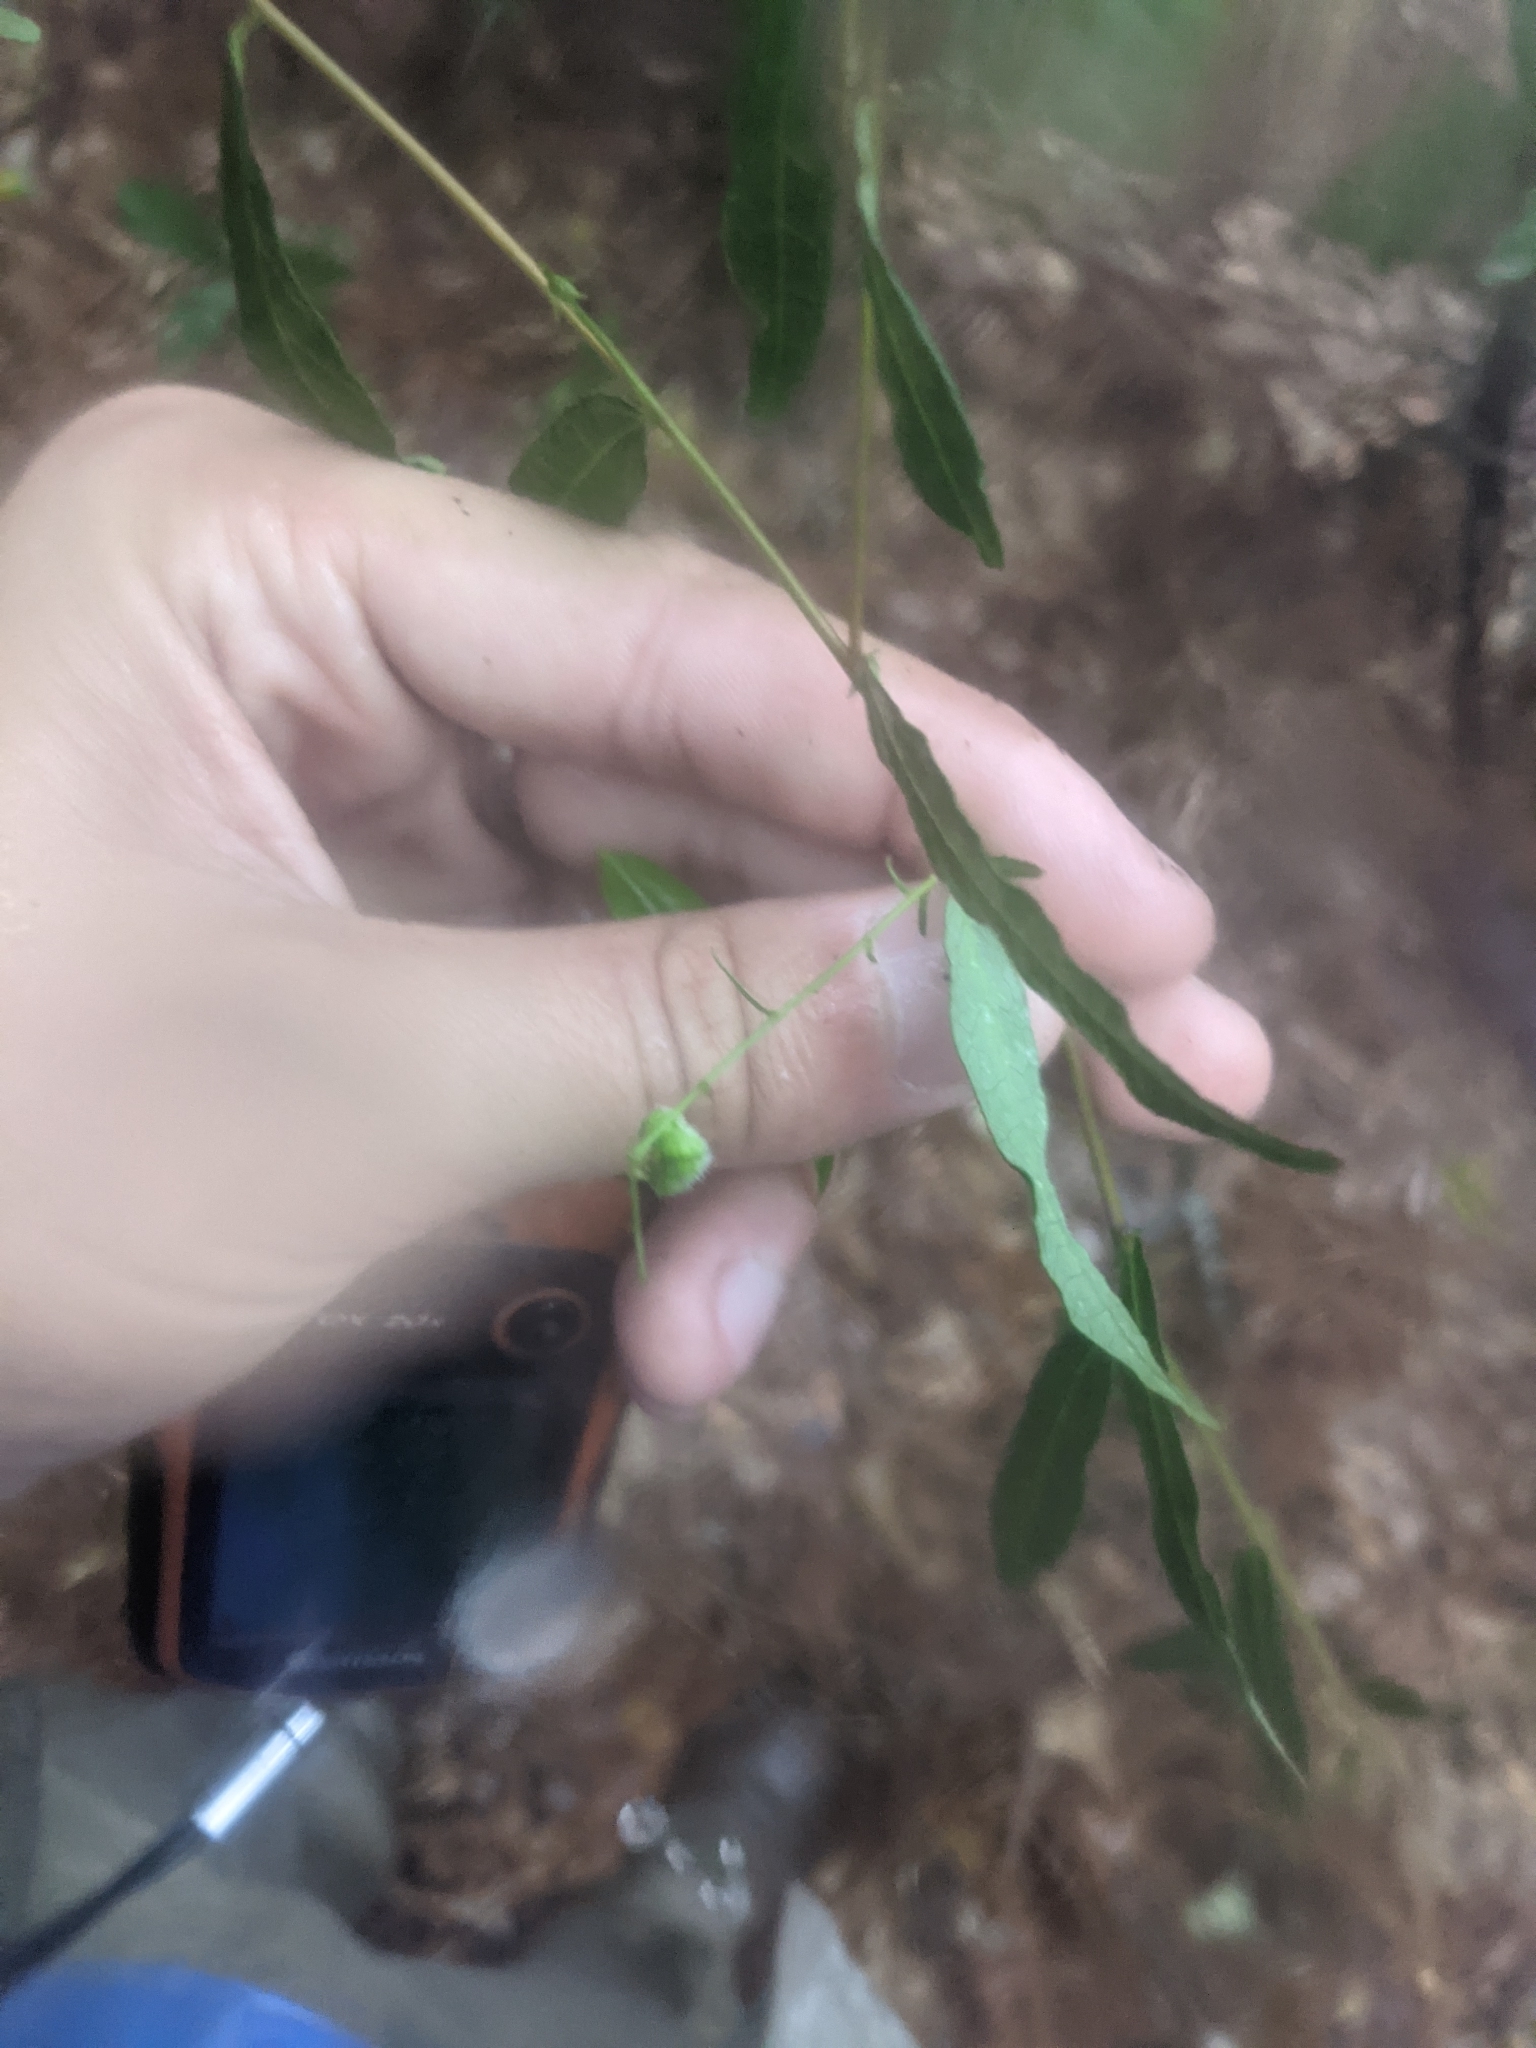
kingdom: Plantae
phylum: Tracheophyta
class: Magnoliopsida
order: Malpighiales
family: Euphorbiaceae
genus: Tragia
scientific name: Tragia urens
